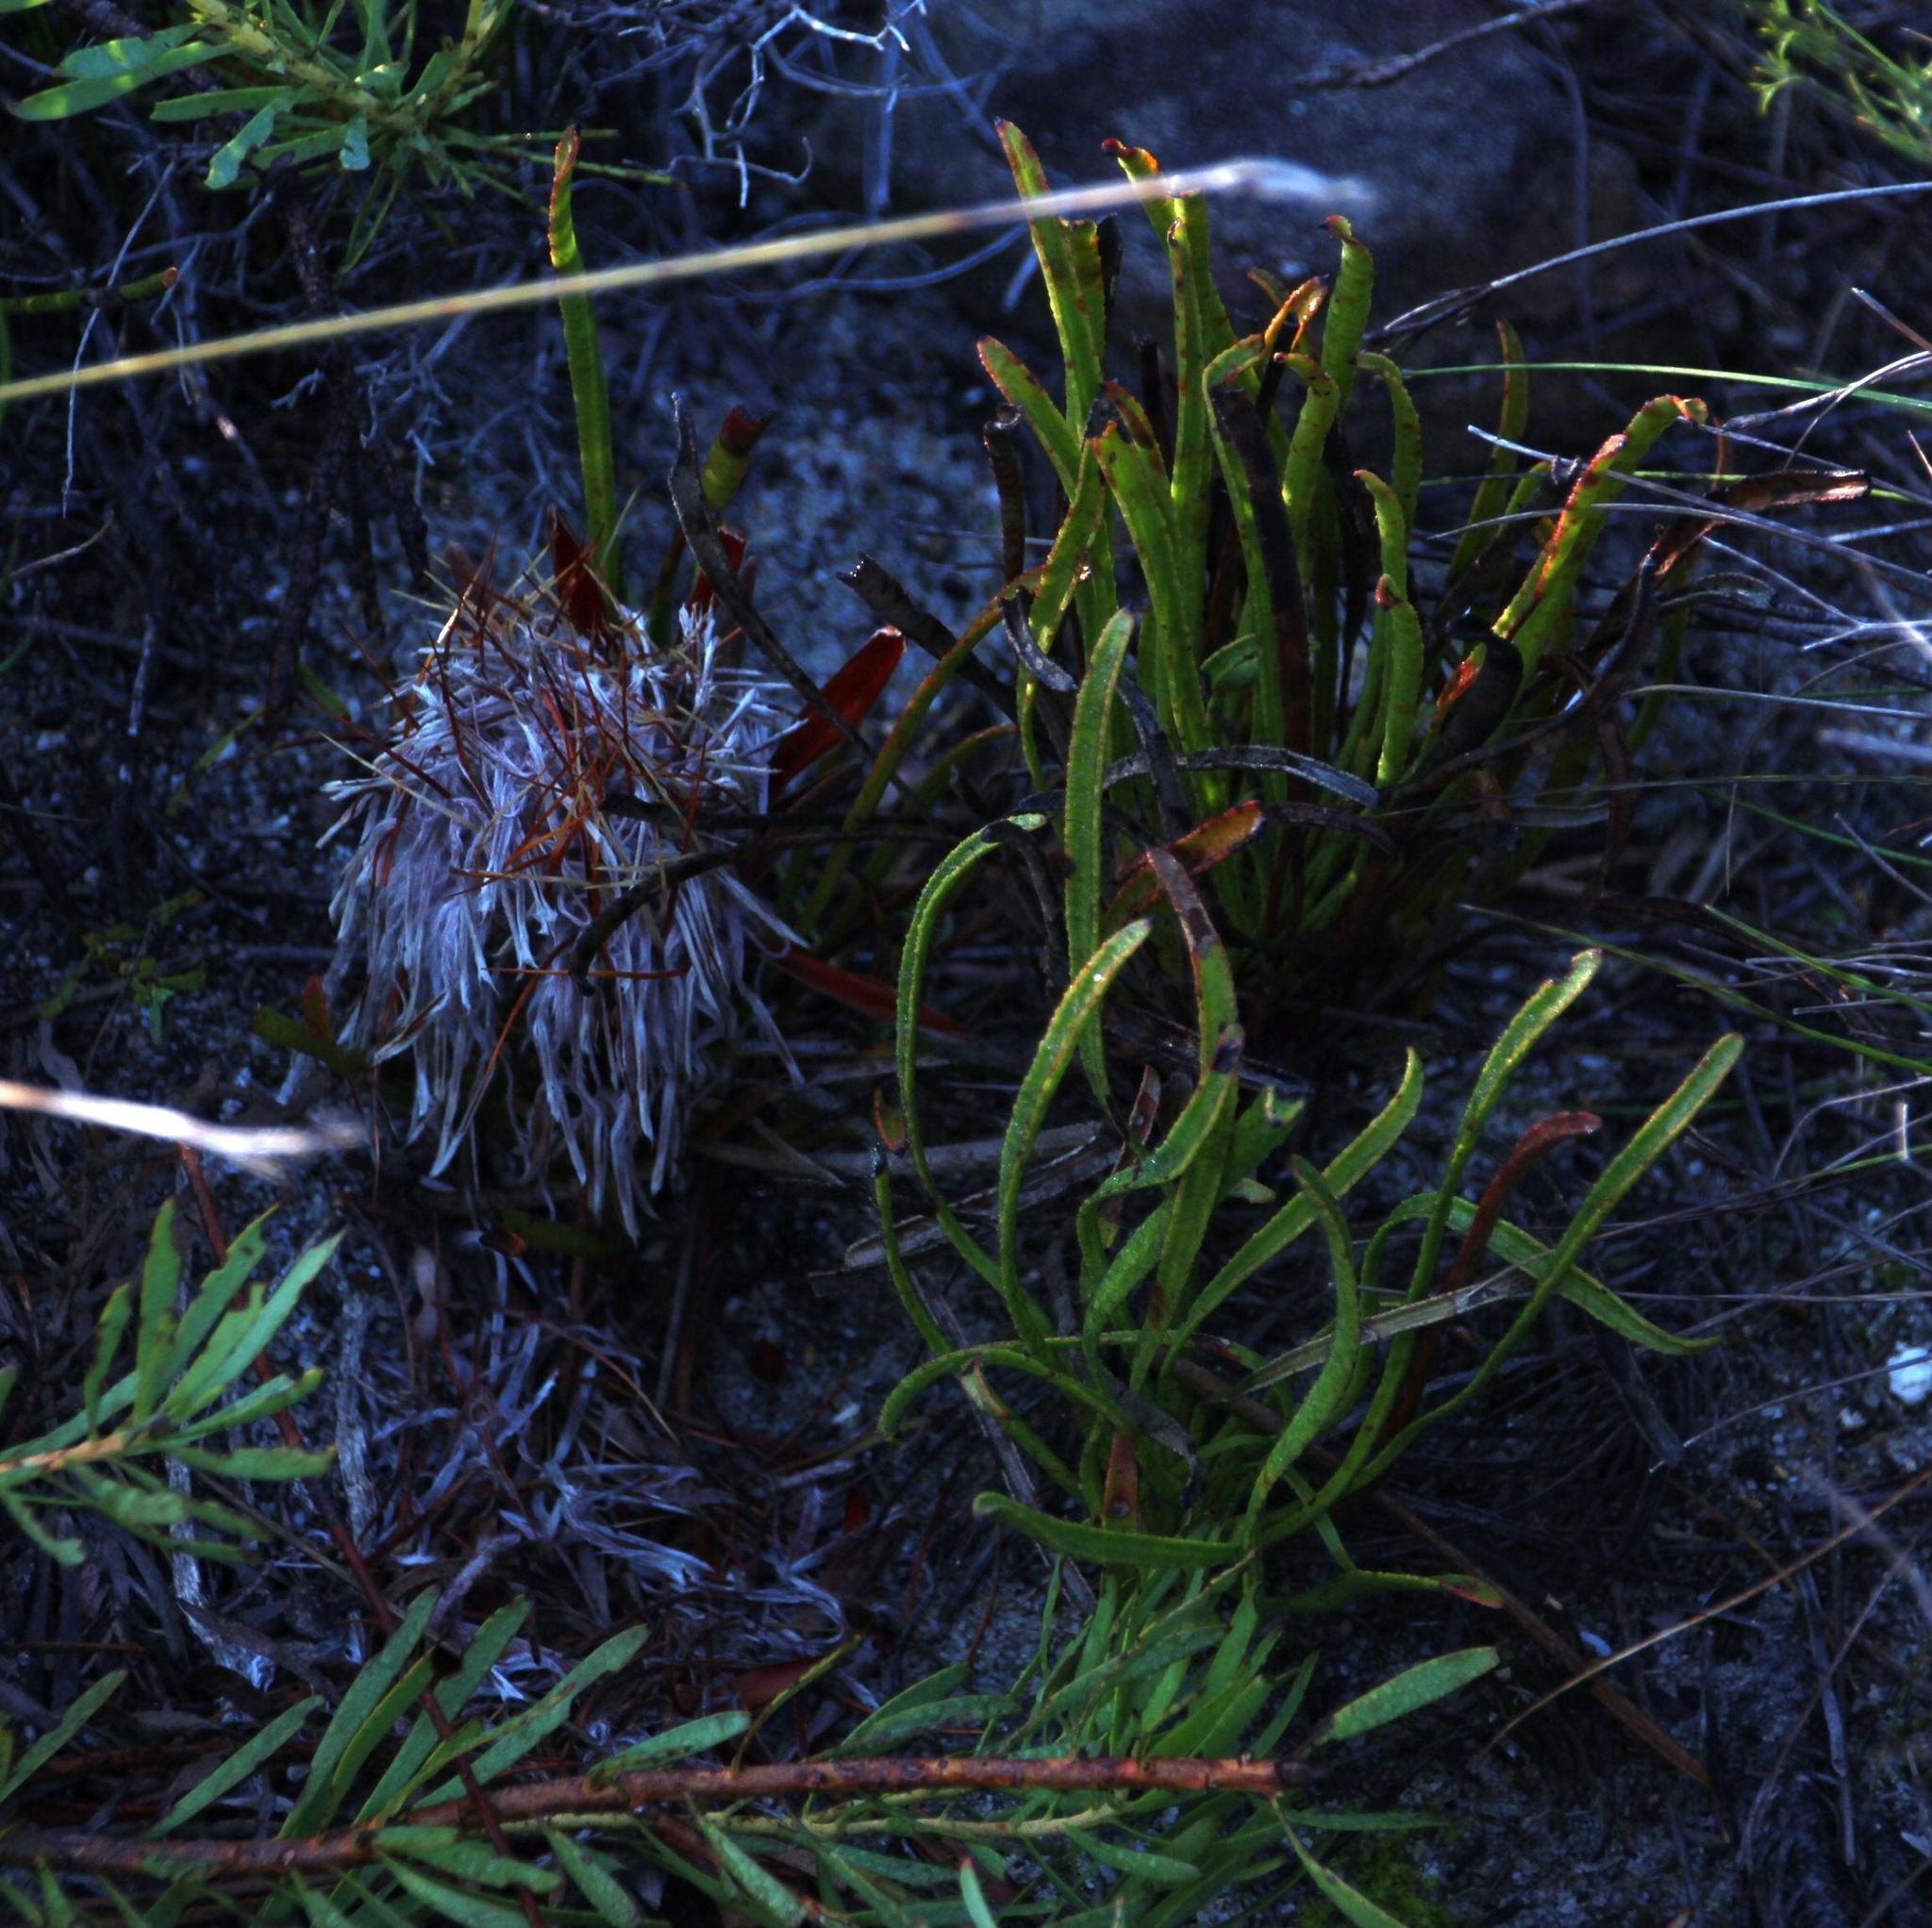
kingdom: Plantae
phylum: Tracheophyta
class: Magnoliopsida
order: Proteales
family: Proteaceae
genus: Protea
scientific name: Protea aspera
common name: Rough-leaf sugarbush
